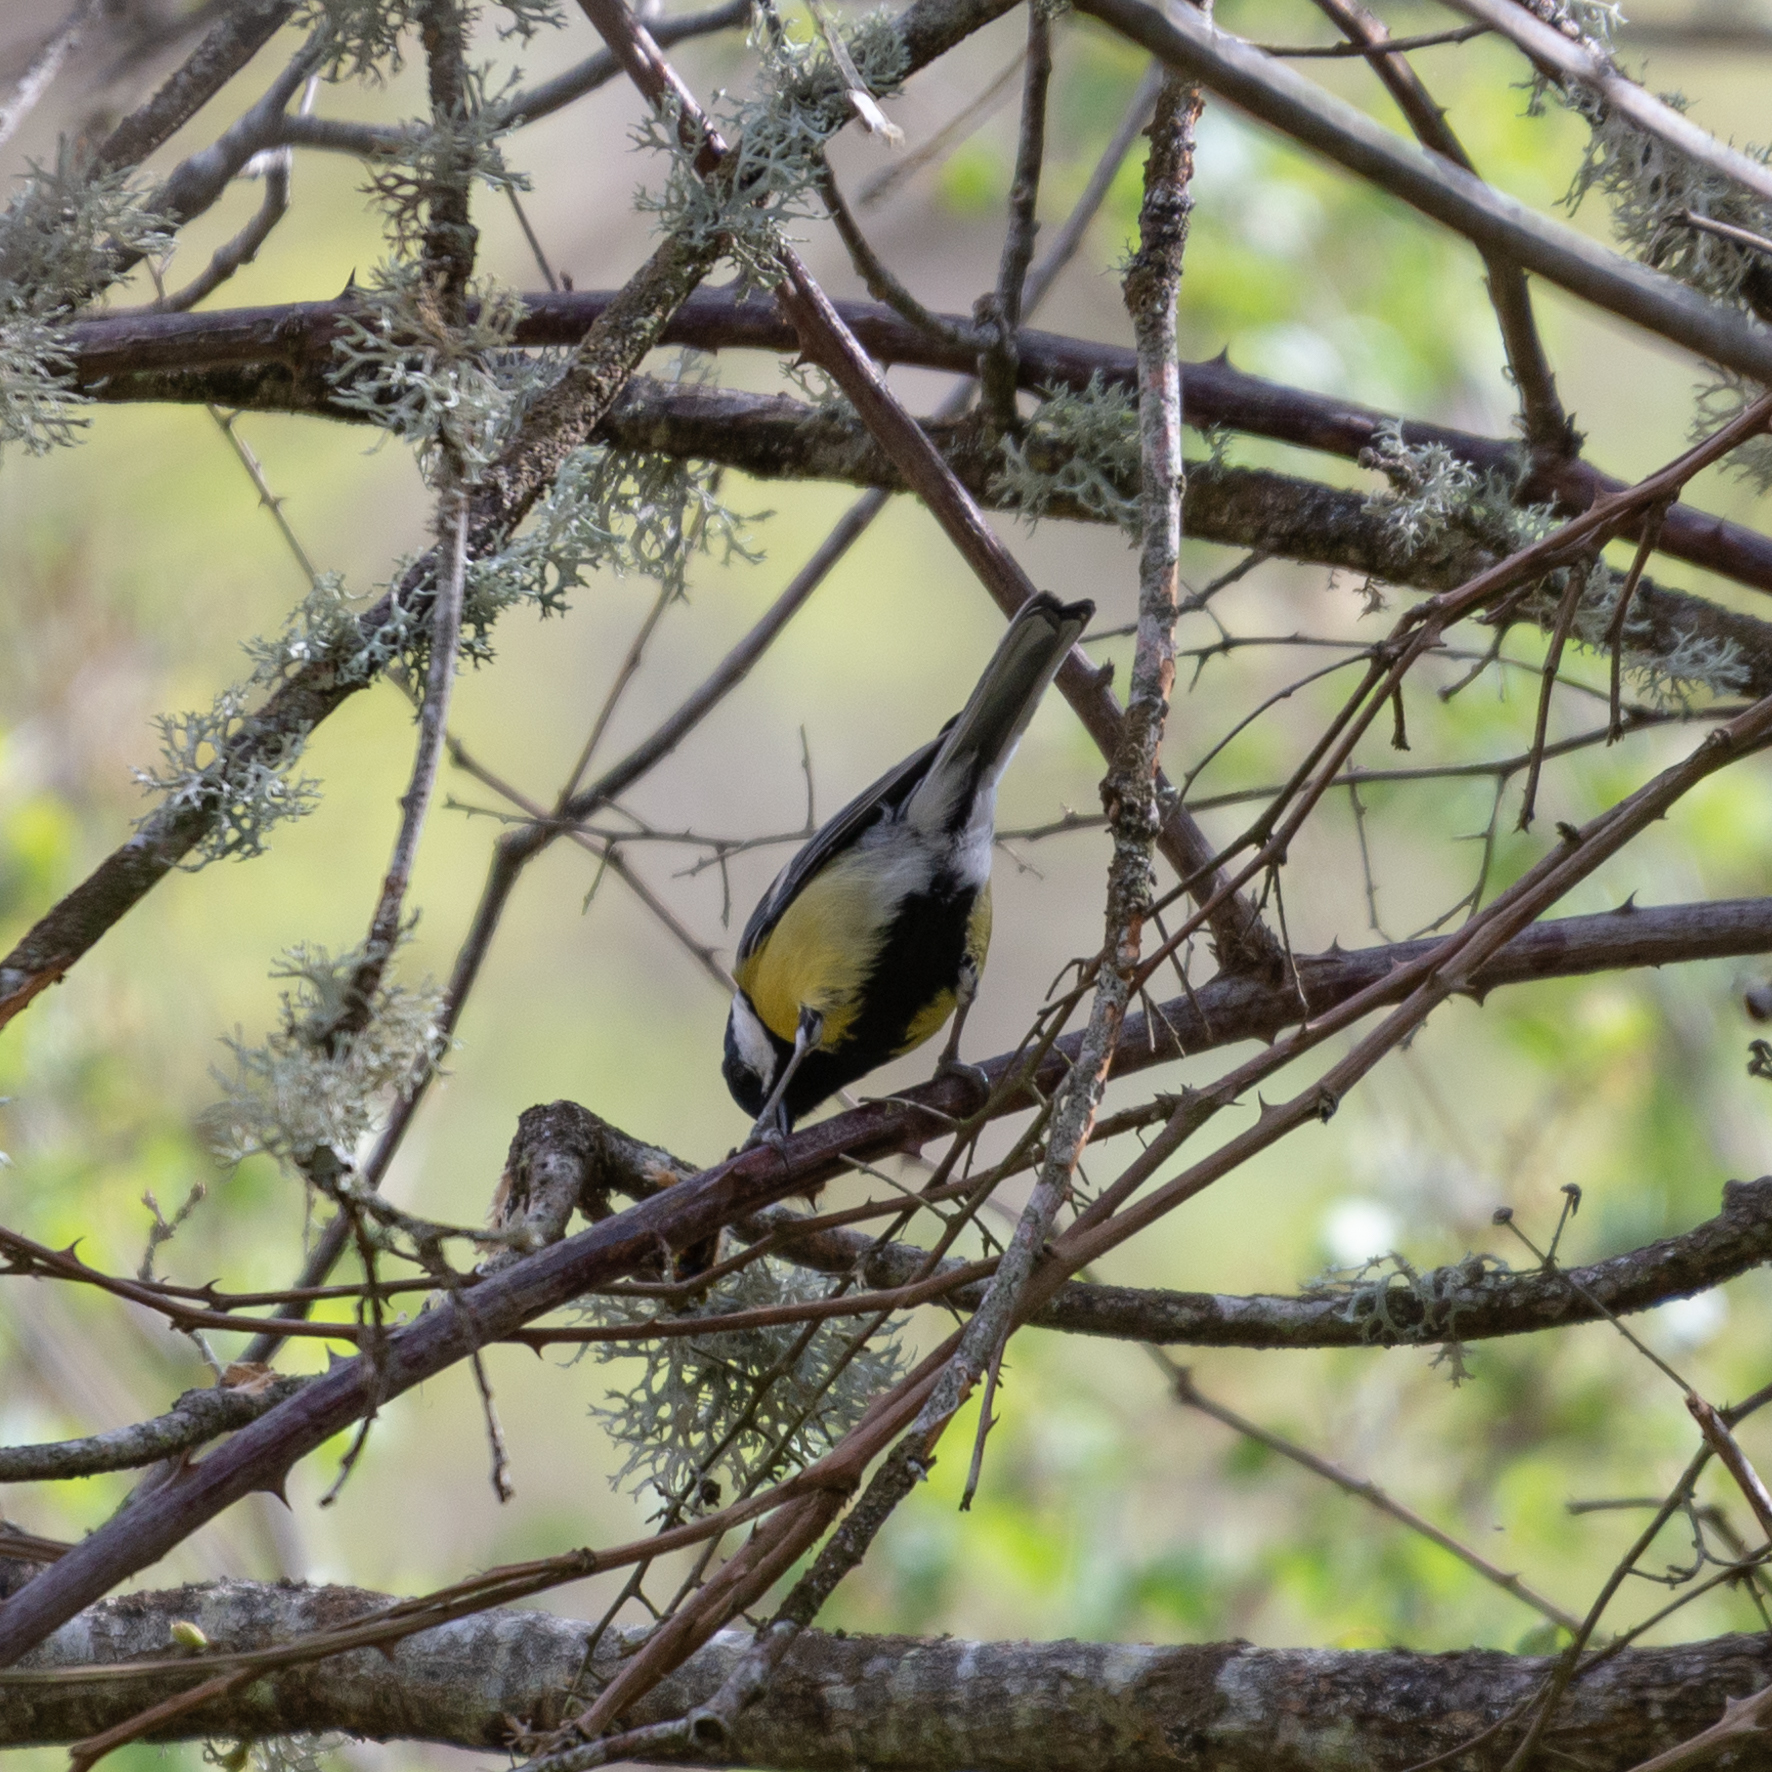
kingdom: Animalia
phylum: Chordata
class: Aves
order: Passeriformes
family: Paridae
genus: Parus
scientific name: Parus major
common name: Great tit
